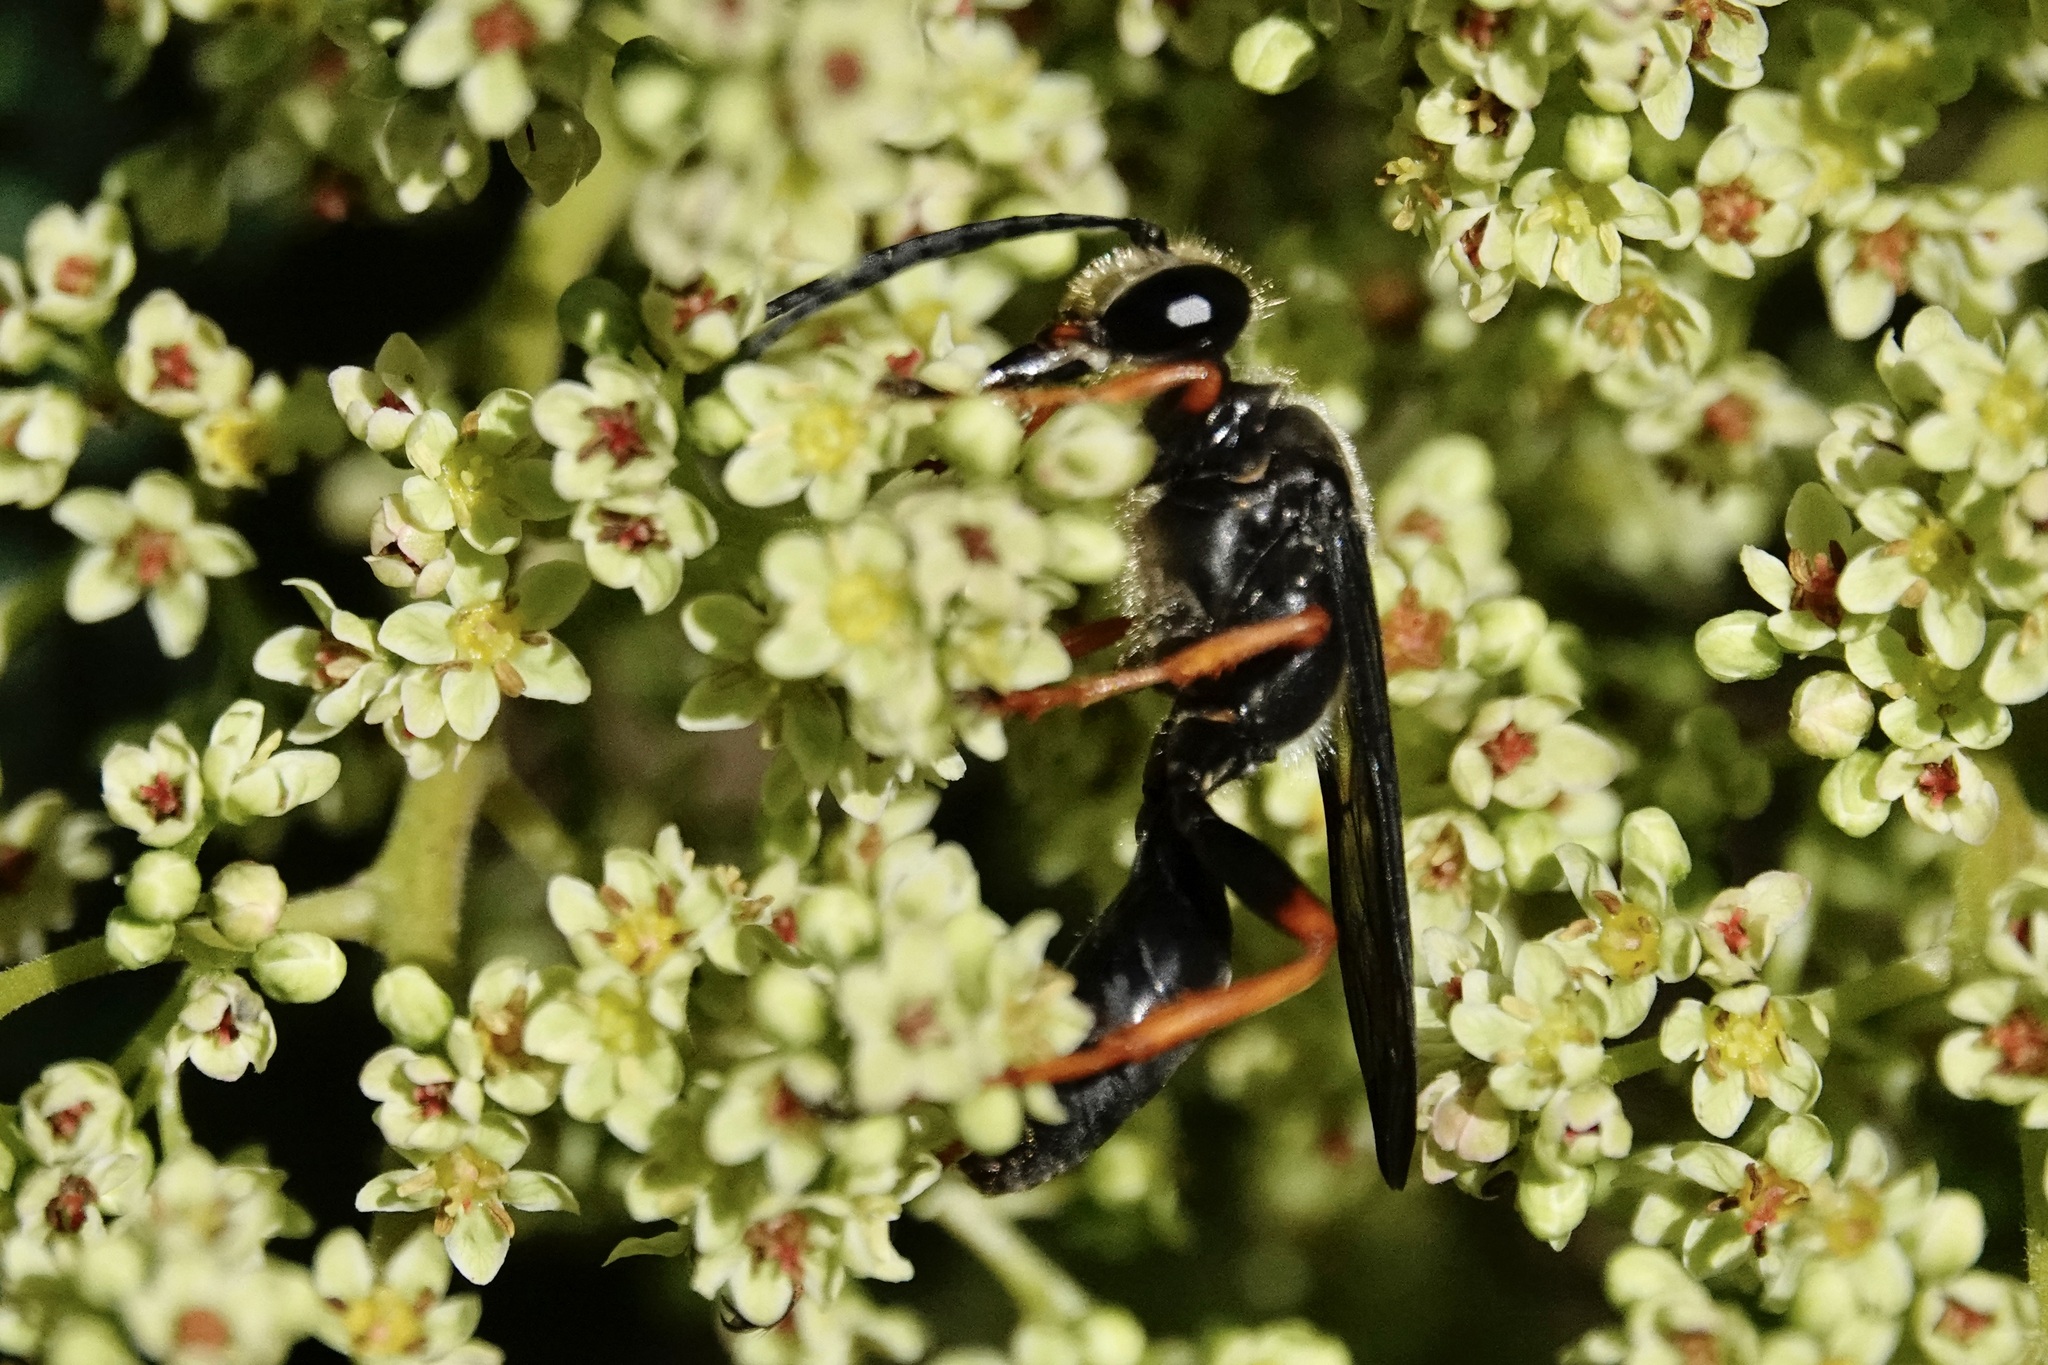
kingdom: Animalia
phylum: Arthropoda
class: Insecta
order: Hymenoptera
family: Sphecidae
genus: Sphex
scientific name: Sphex nudus
